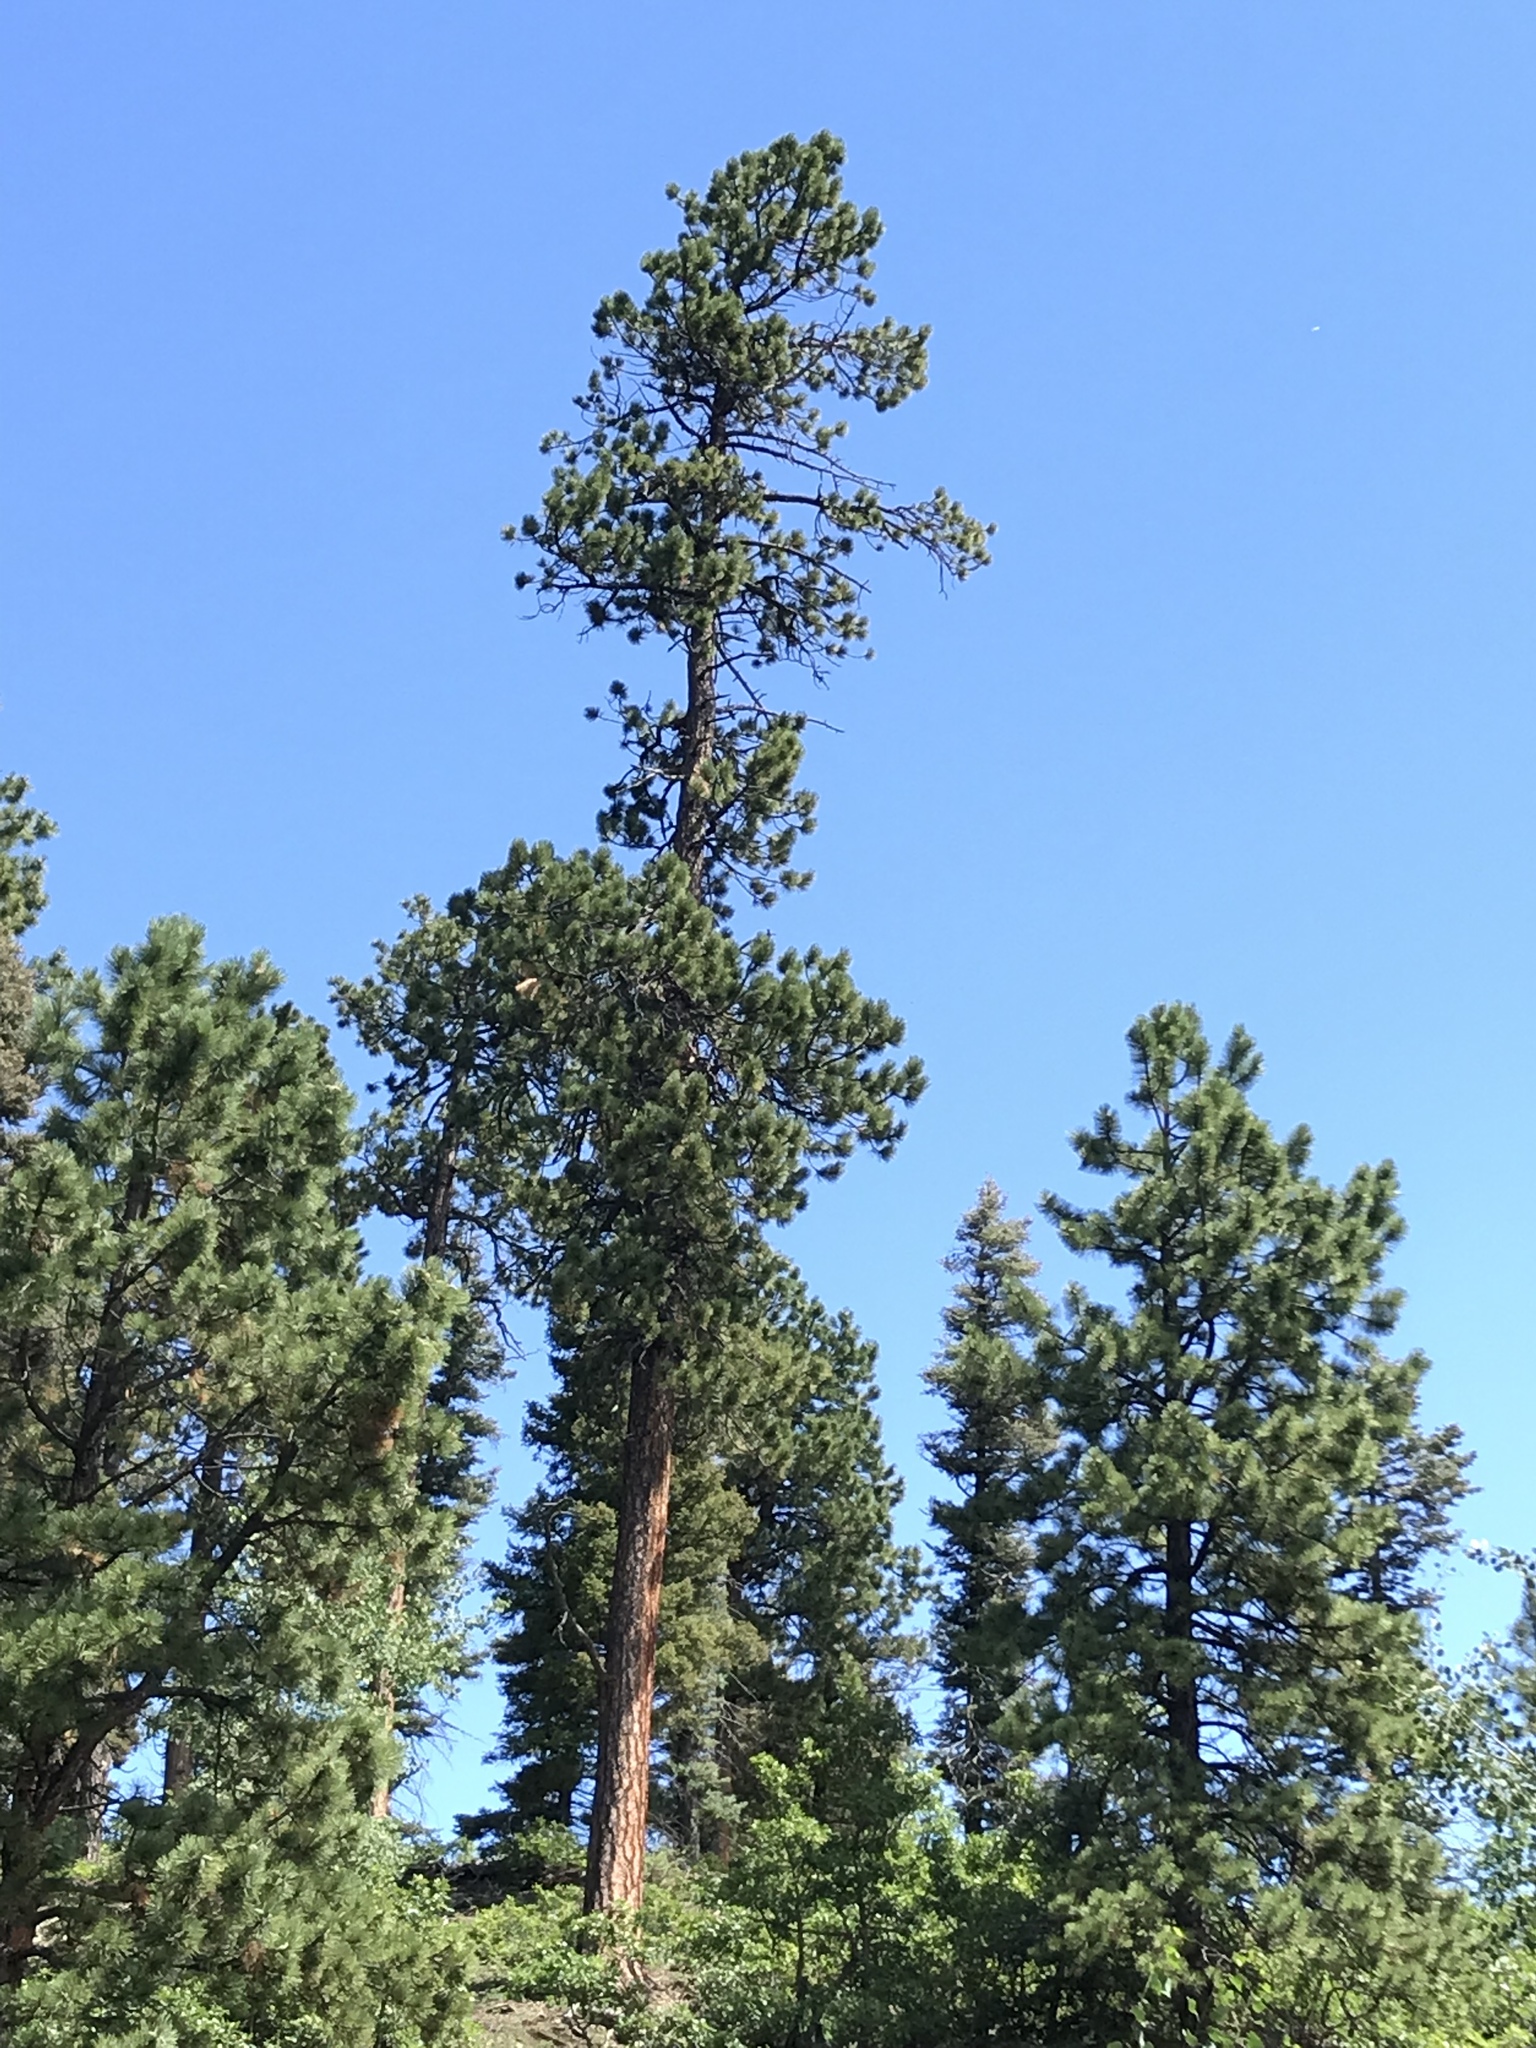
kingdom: Plantae
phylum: Tracheophyta
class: Pinopsida
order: Pinales
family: Pinaceae
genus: Pinus
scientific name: Pinus ponderosa
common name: Western yellow-pine
